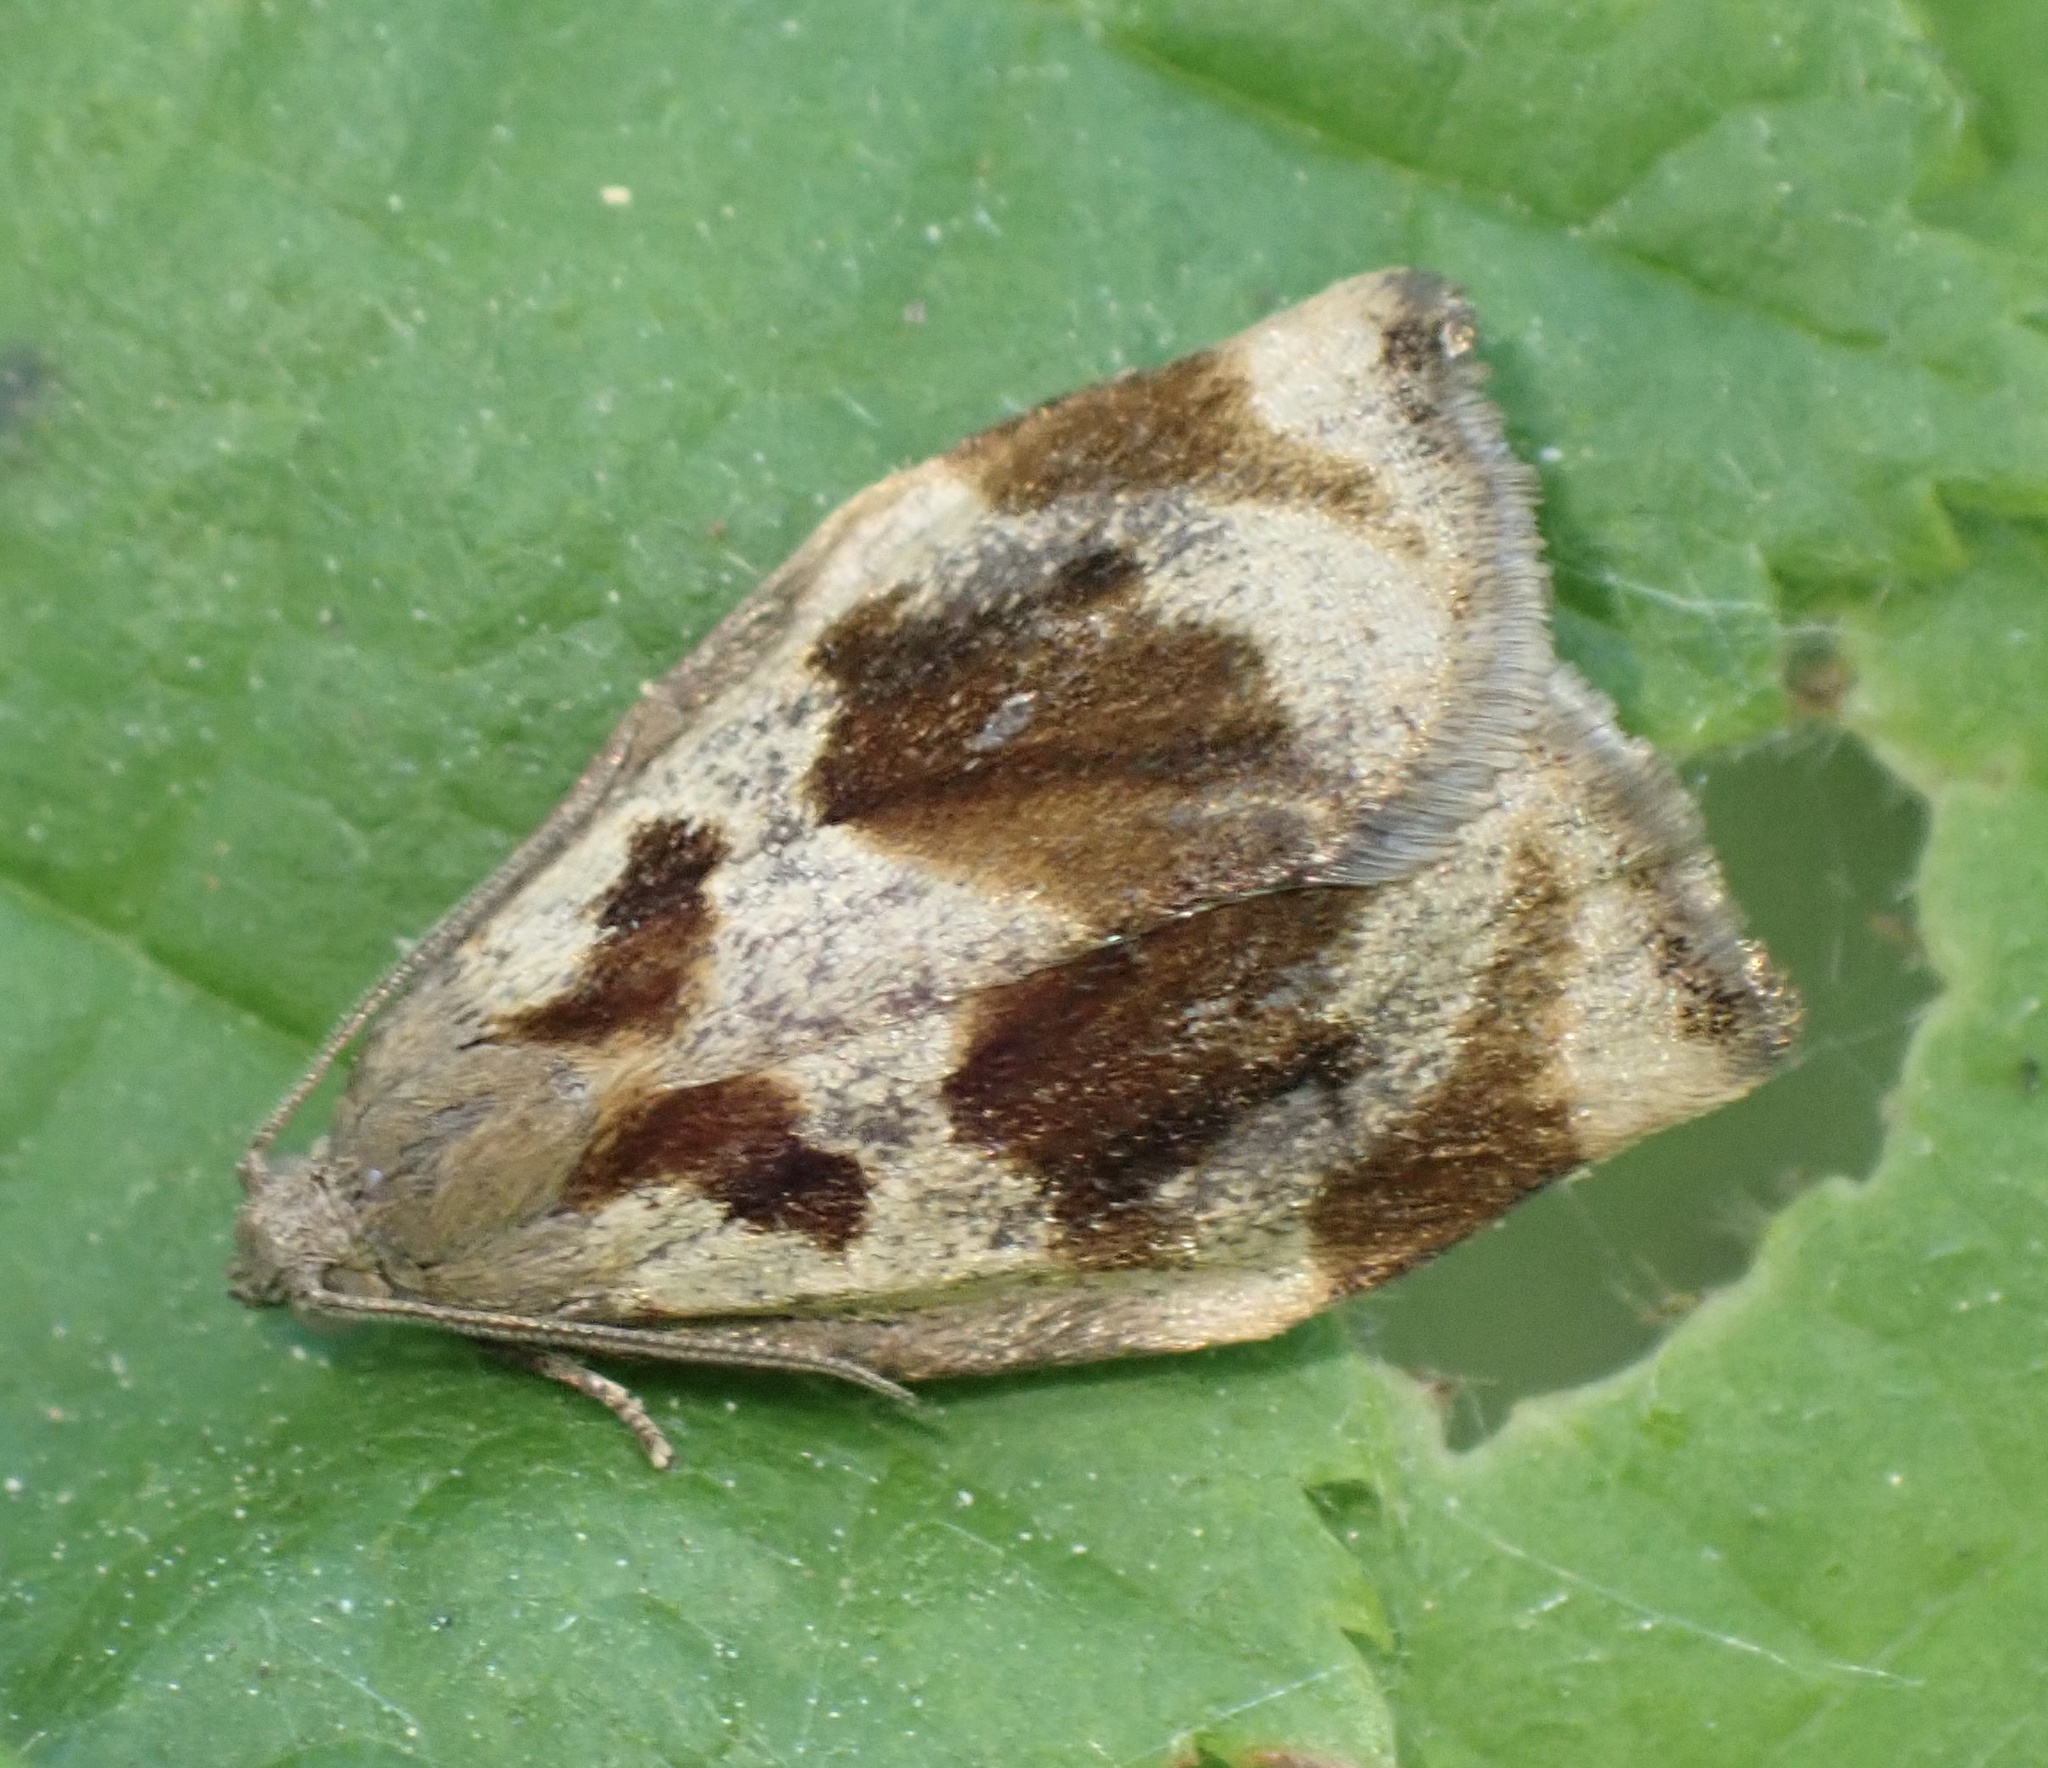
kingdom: Animalia
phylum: Arthropoda
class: Insecta
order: Lepidoptera
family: Tortricidae
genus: Archips
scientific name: Archips crataegana
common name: Brown oak tortrix
